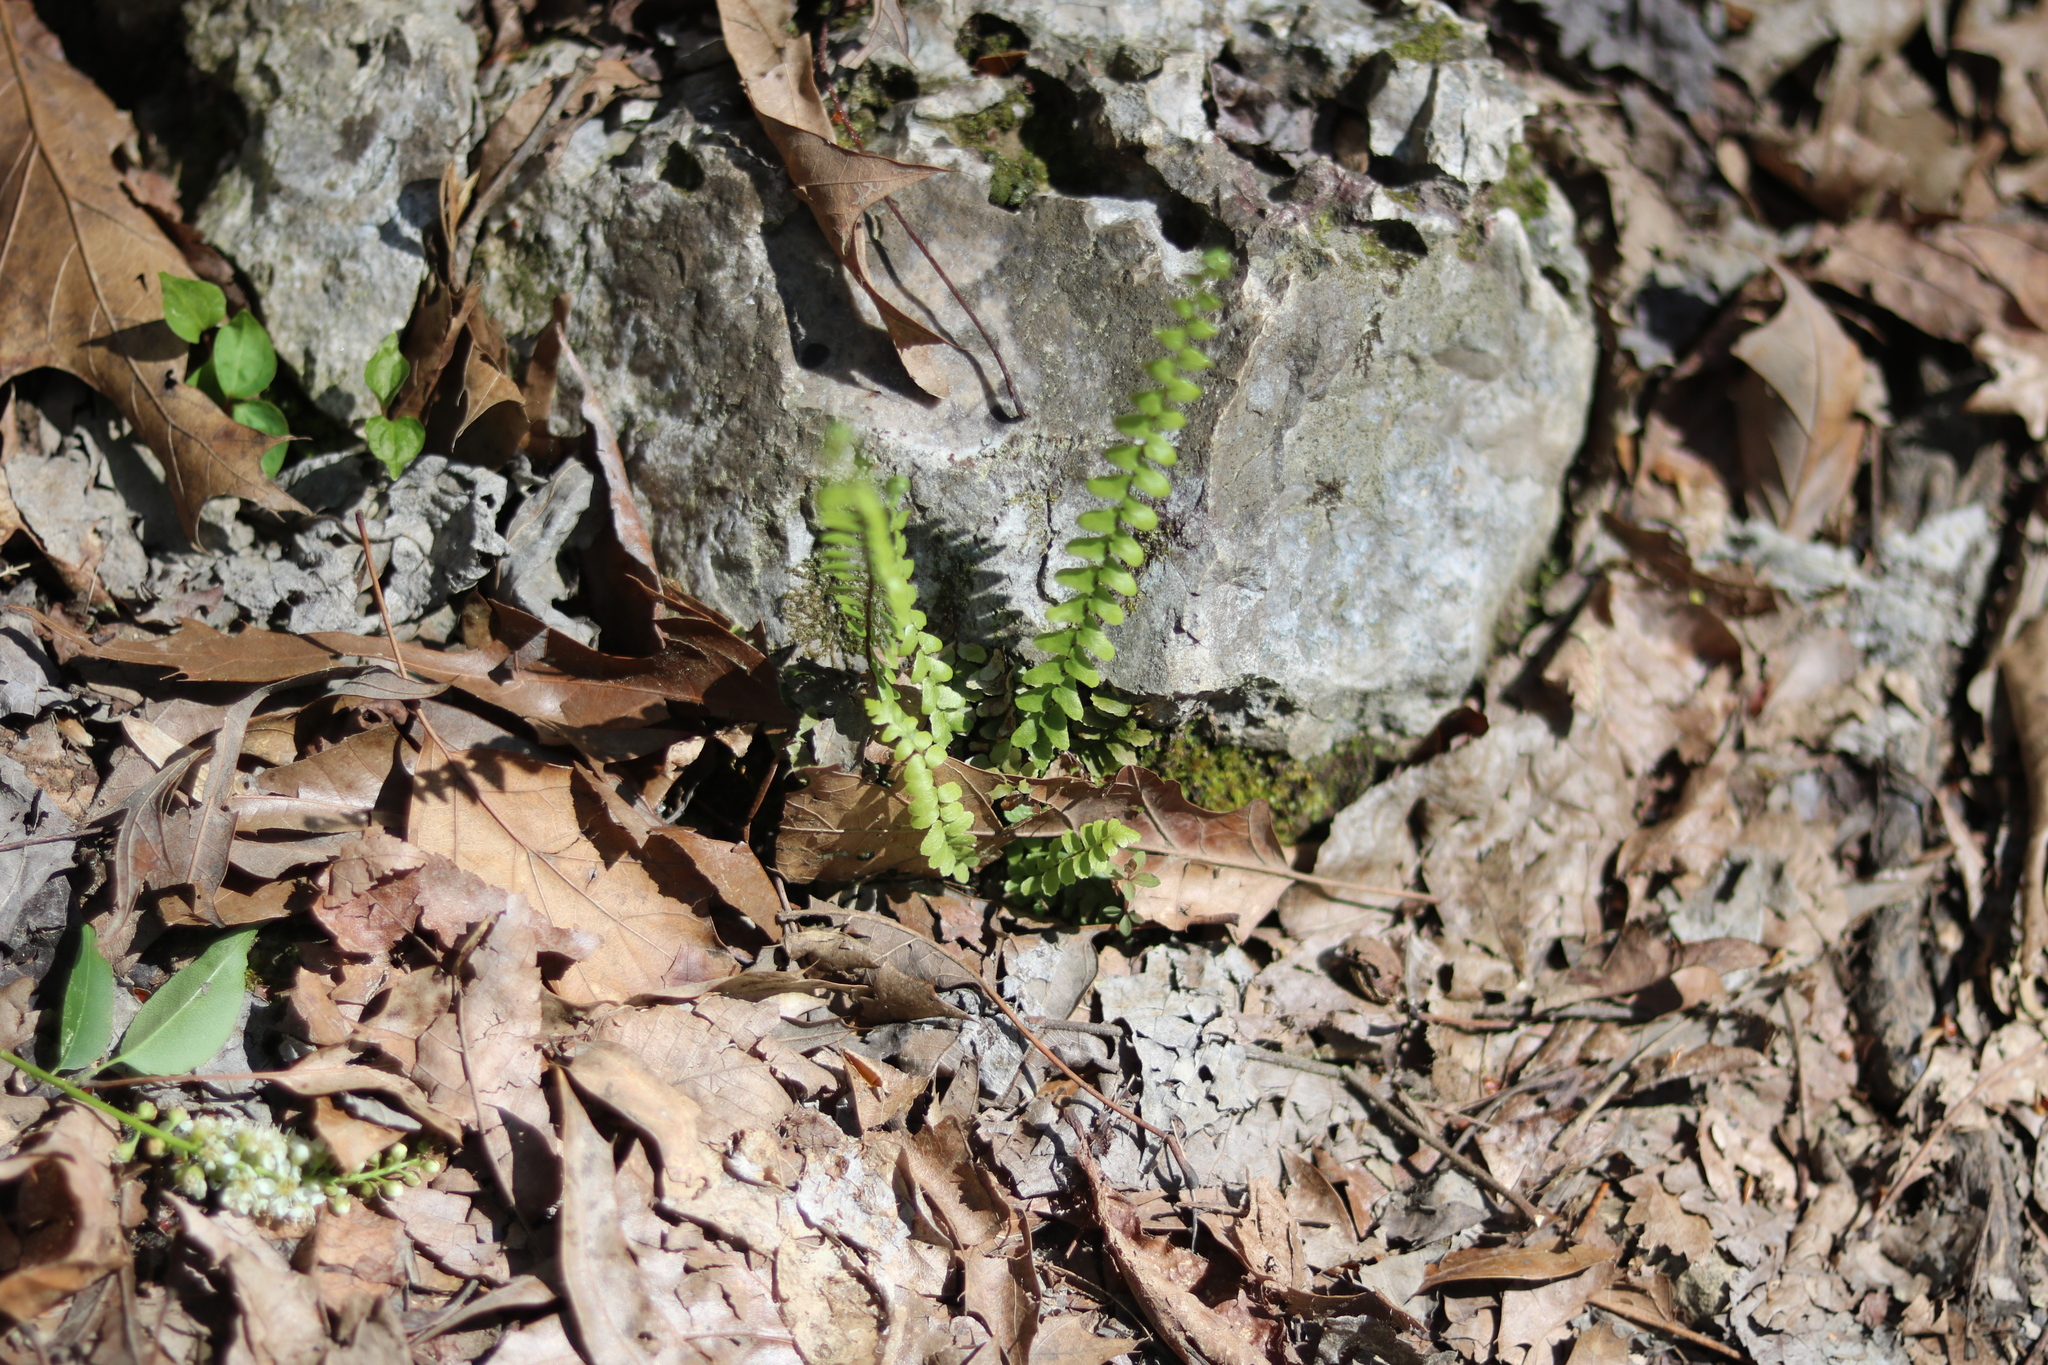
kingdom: Plantae
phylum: Tracheophyta
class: Polypodiopsida
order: Polypodiales
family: Aspleniaceae
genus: Asplenium
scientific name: Asplenium platyneuron
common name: Ebony spleenwort
